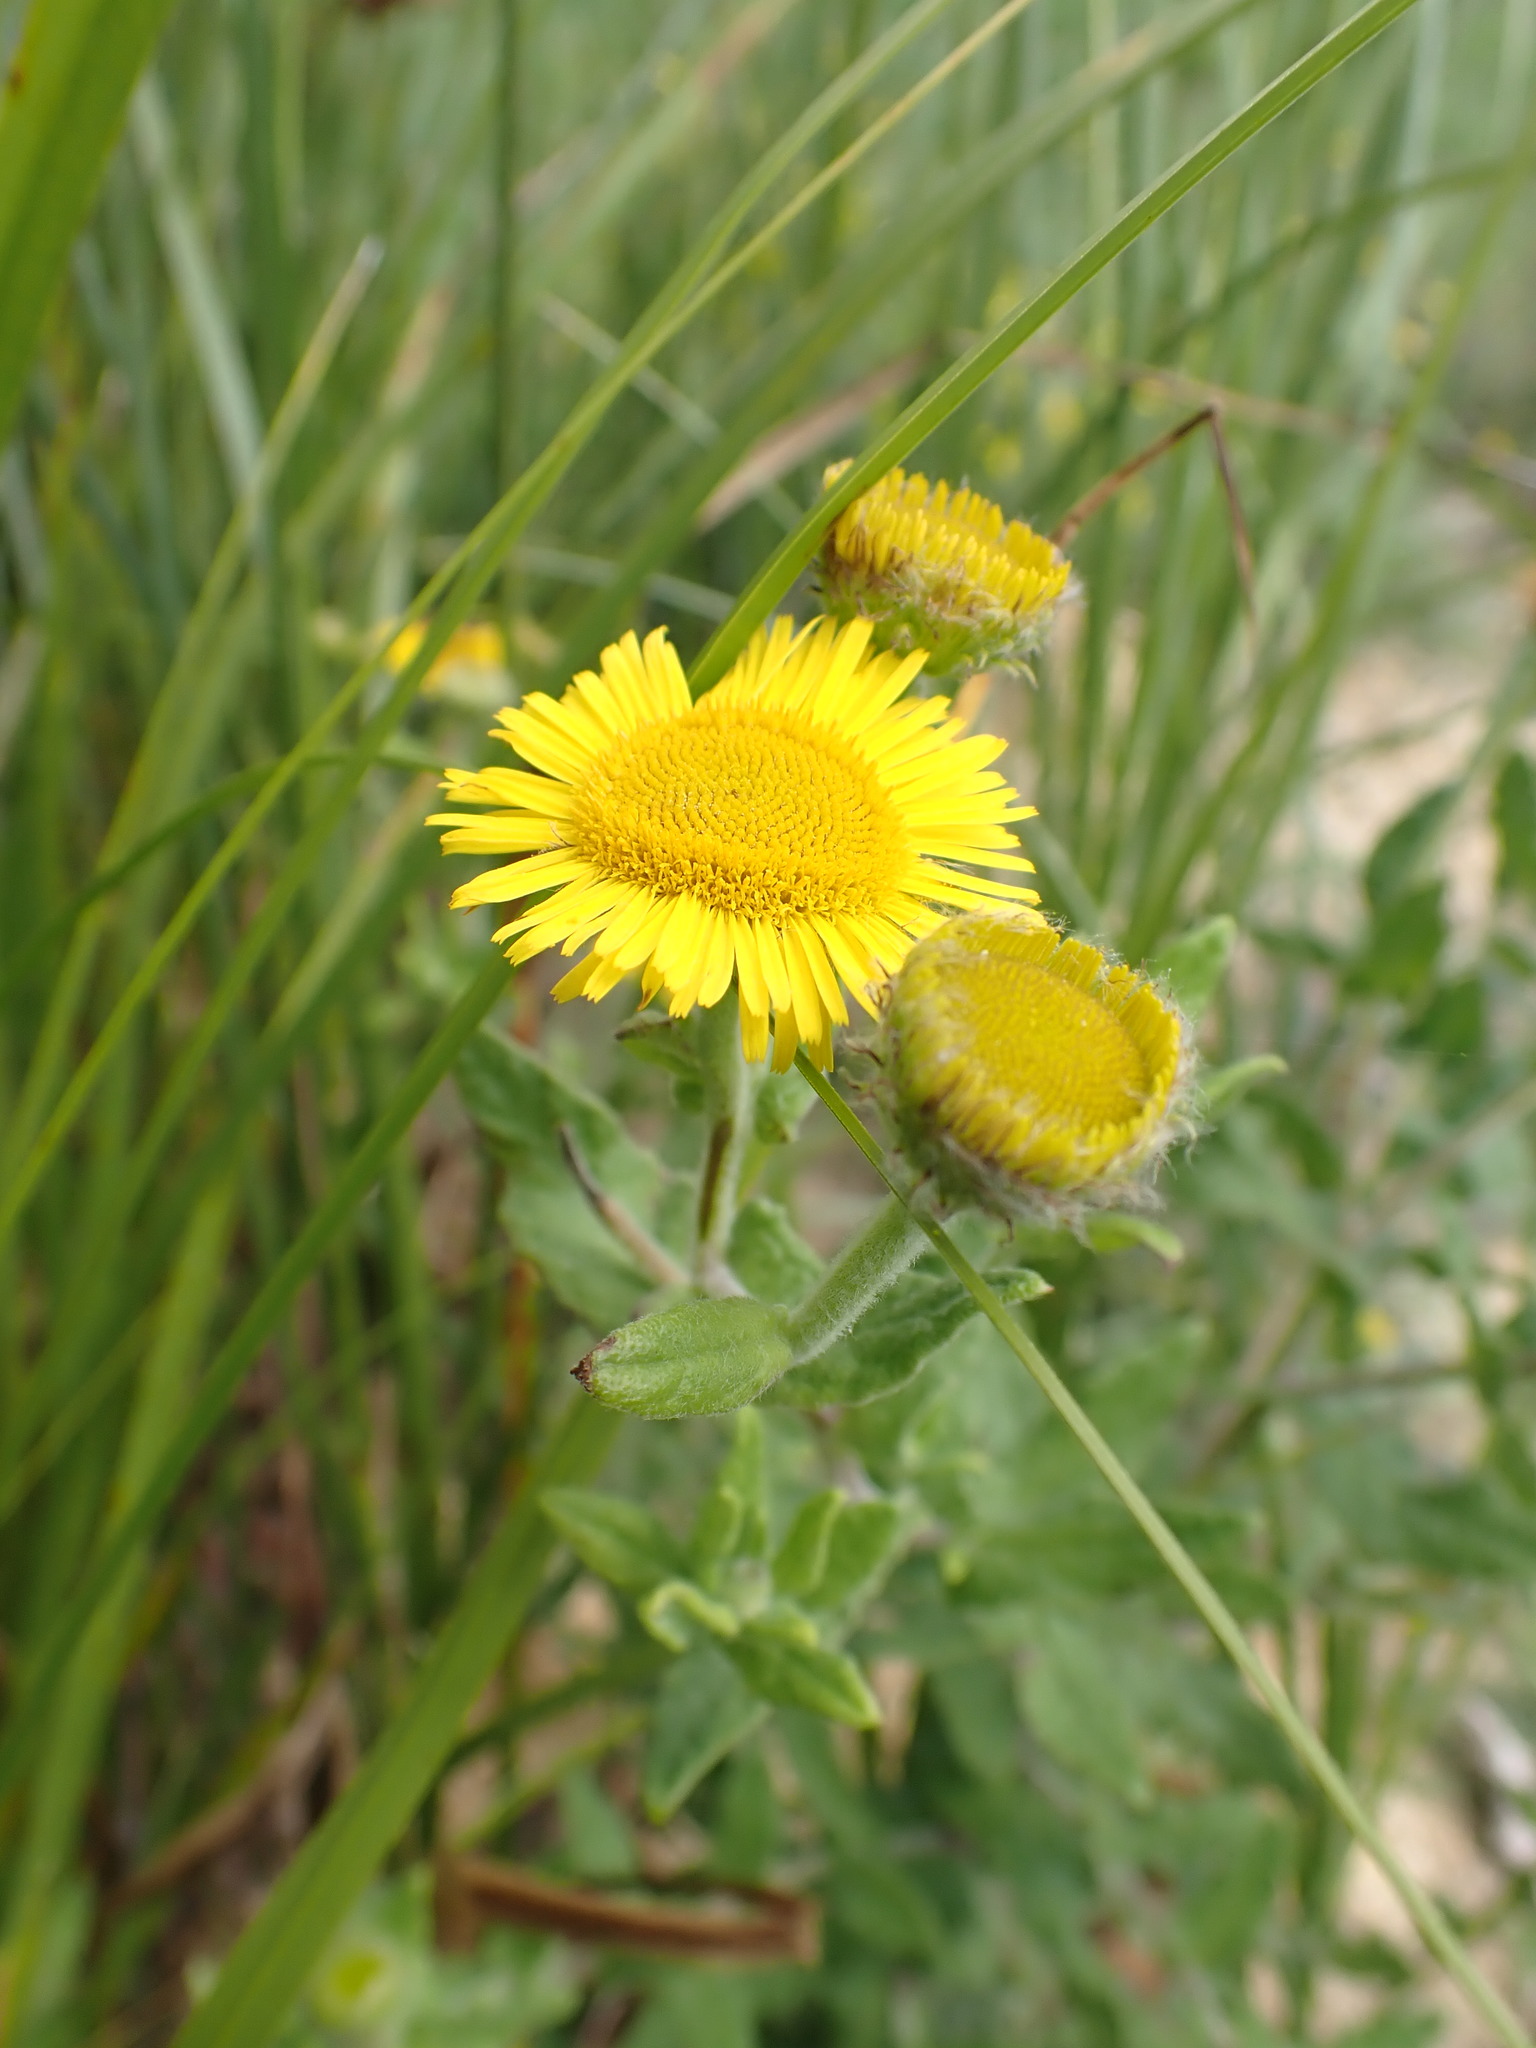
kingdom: Plantae
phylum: Tracheophyta
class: Magnoliopsida
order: Asterales
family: Asteraceae
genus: Pulicaria
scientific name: Pulicaria dysenterica
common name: Common fleabane
